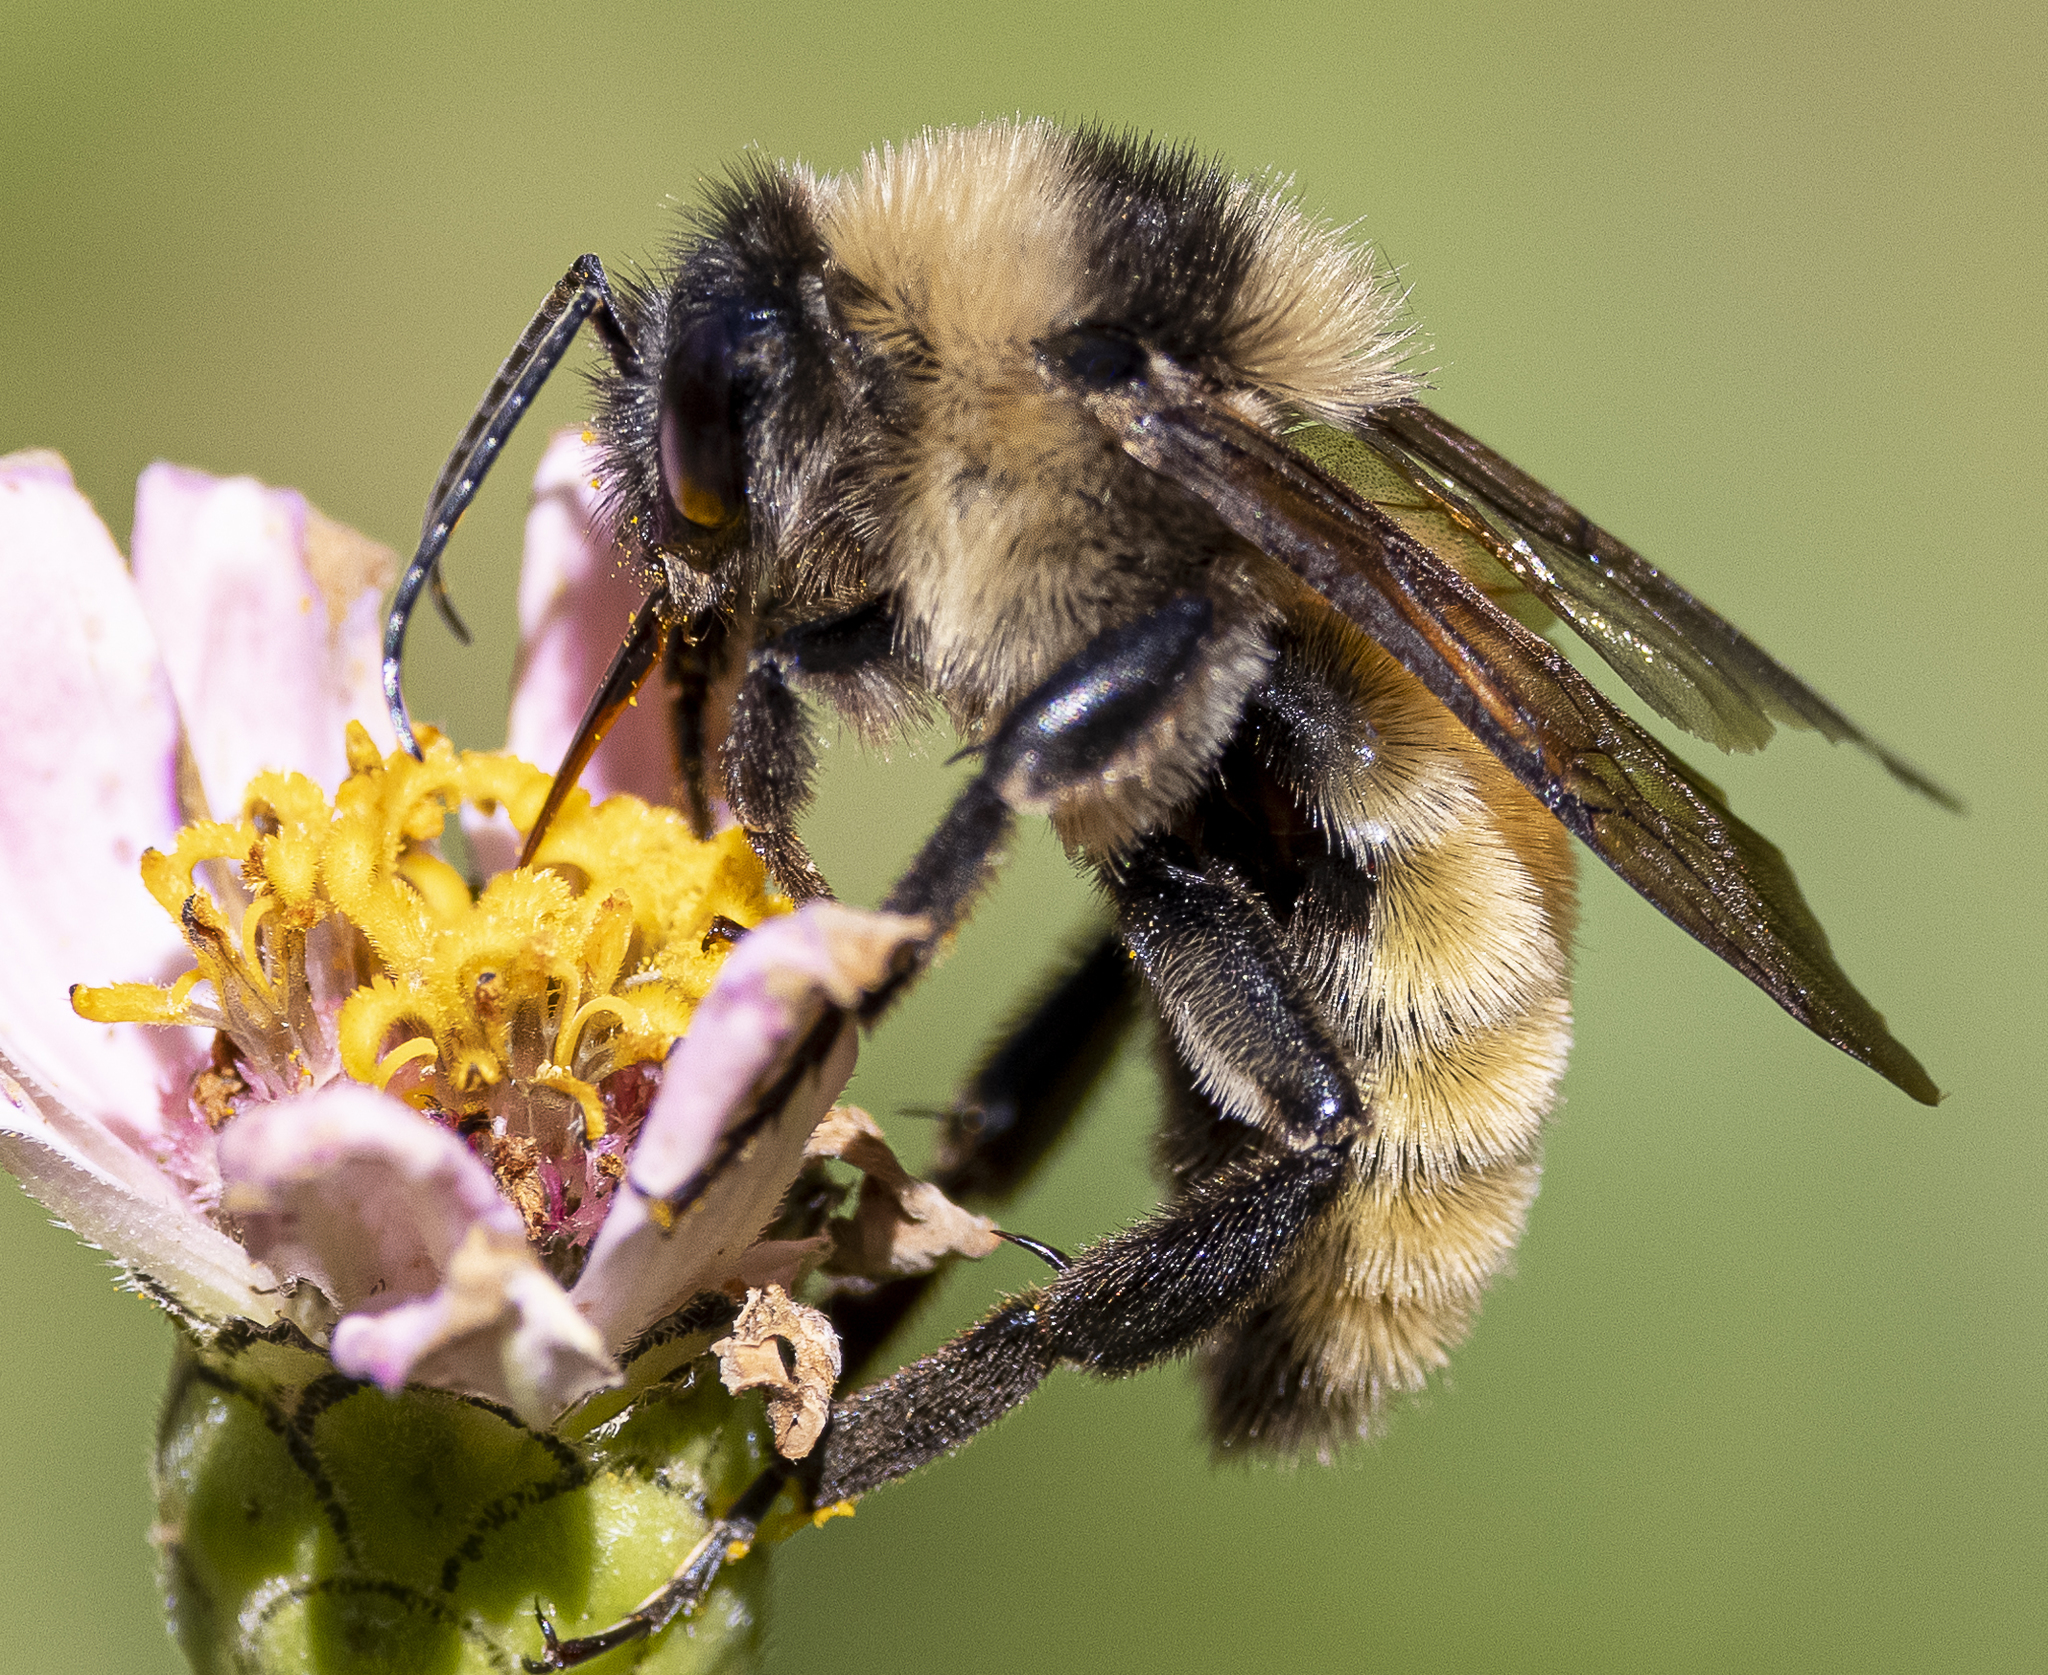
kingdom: Animalia
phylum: Arthropoda
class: Insecta
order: Hymenoptera
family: Apidae
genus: Bombus
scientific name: Bombus pensylvanicus
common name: Bumble bee
